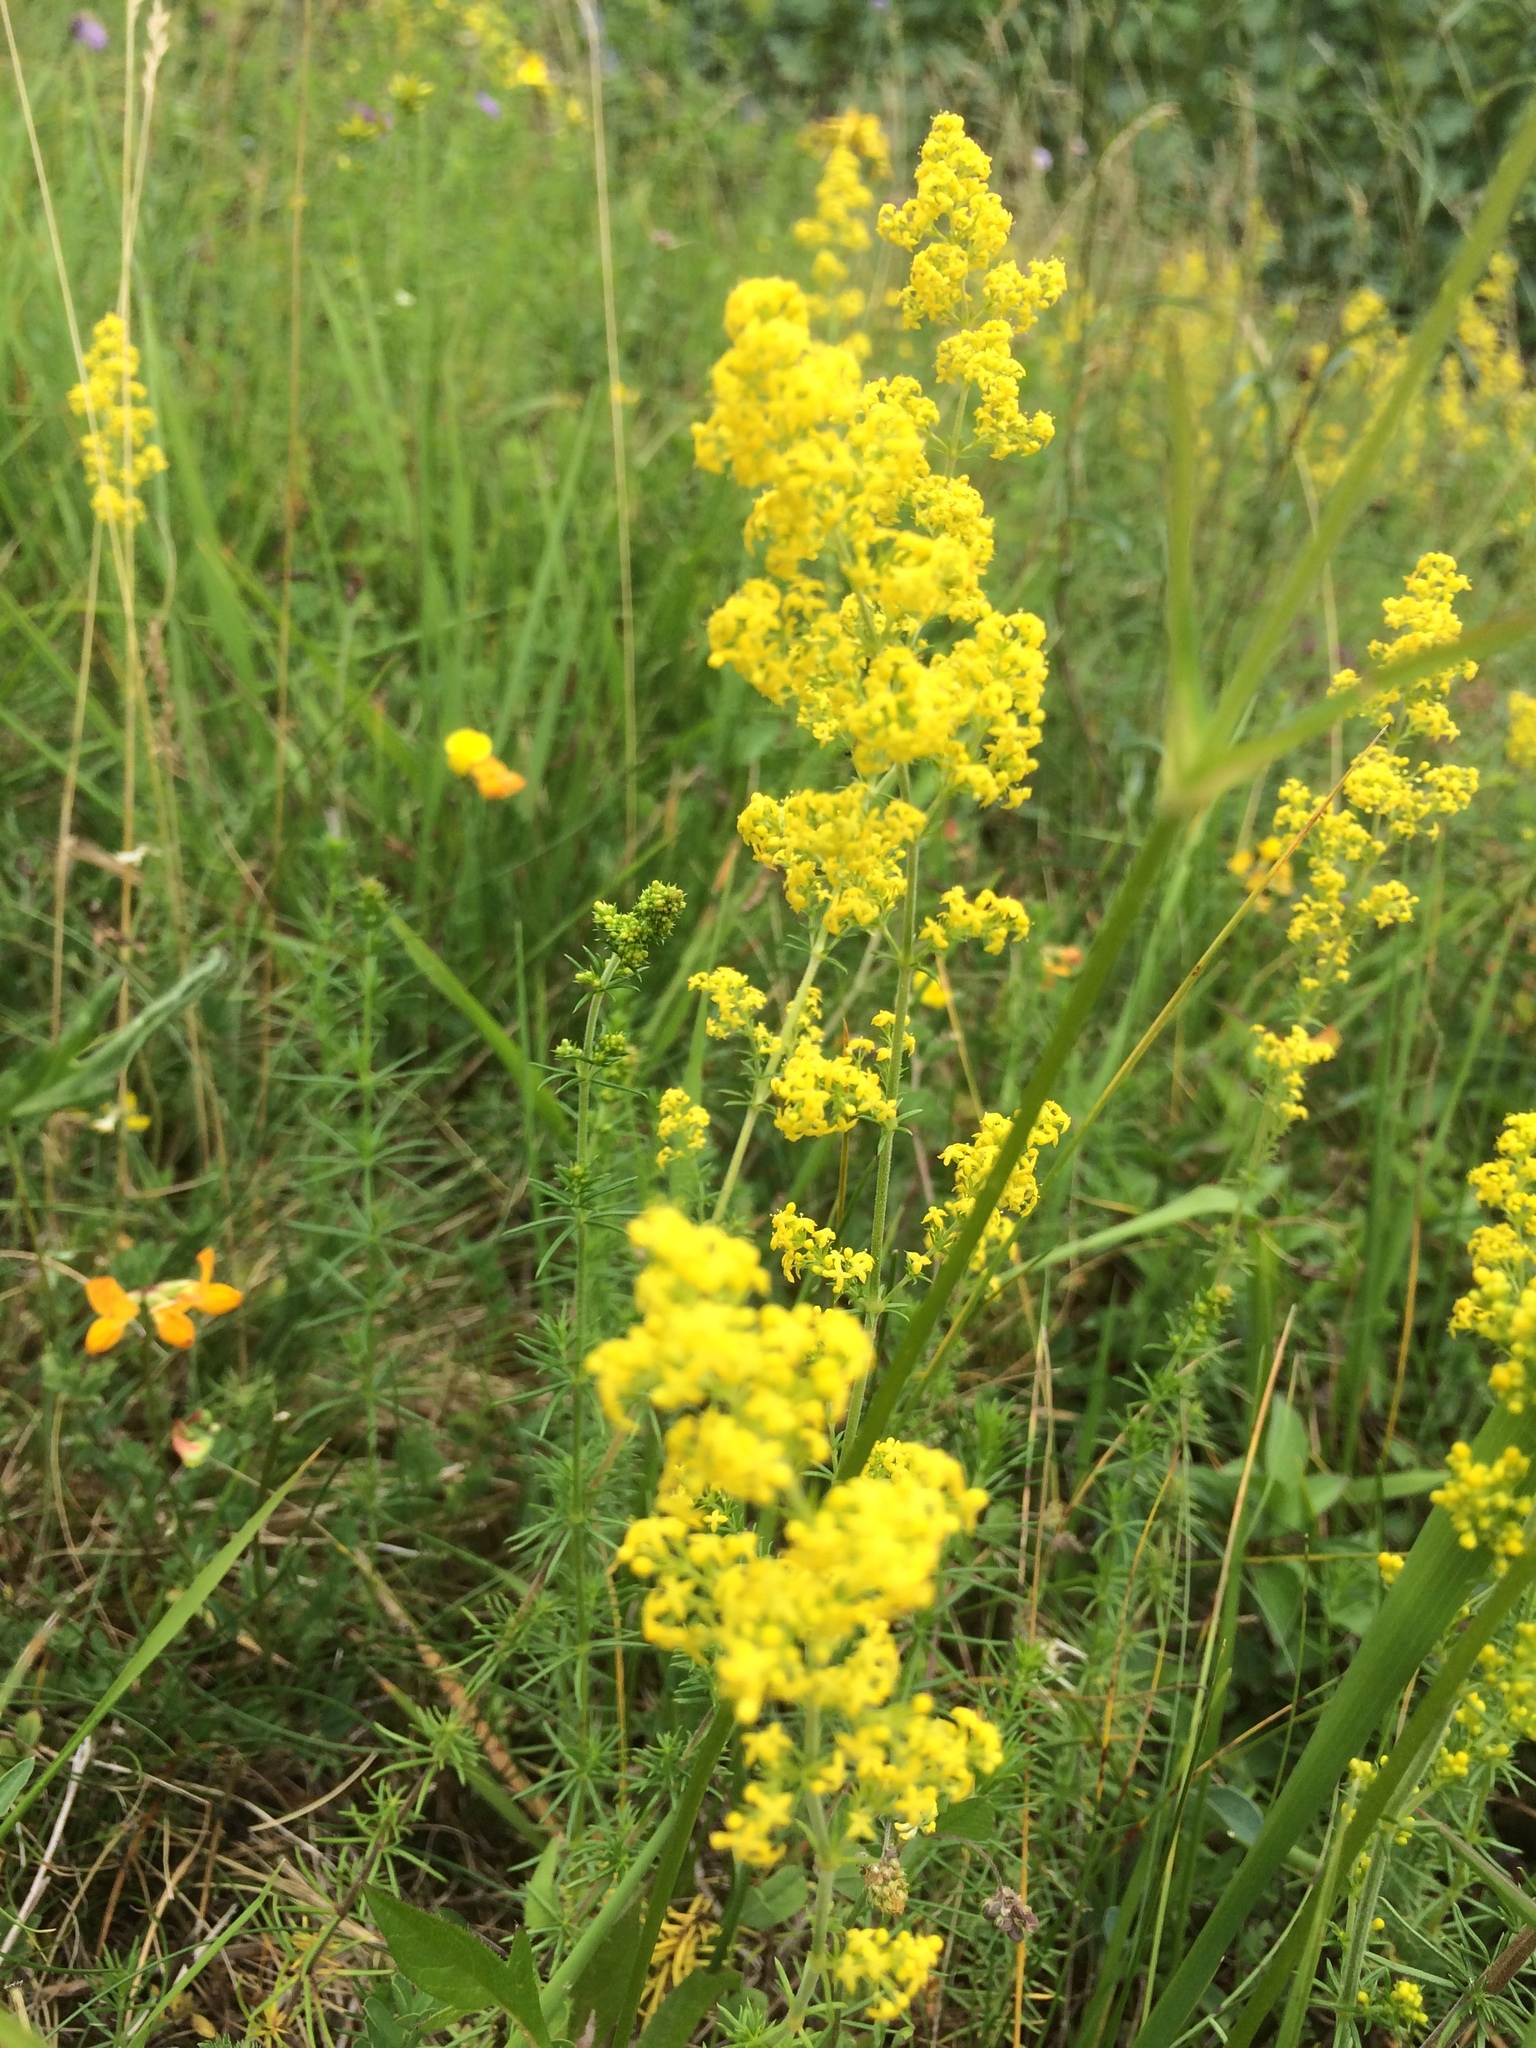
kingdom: Plantae
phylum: Tracheophyta
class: Magnoliopsida
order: Gentianales
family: Rubiaceae
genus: Galium
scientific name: Galium verum
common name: Lady's bedstraw
